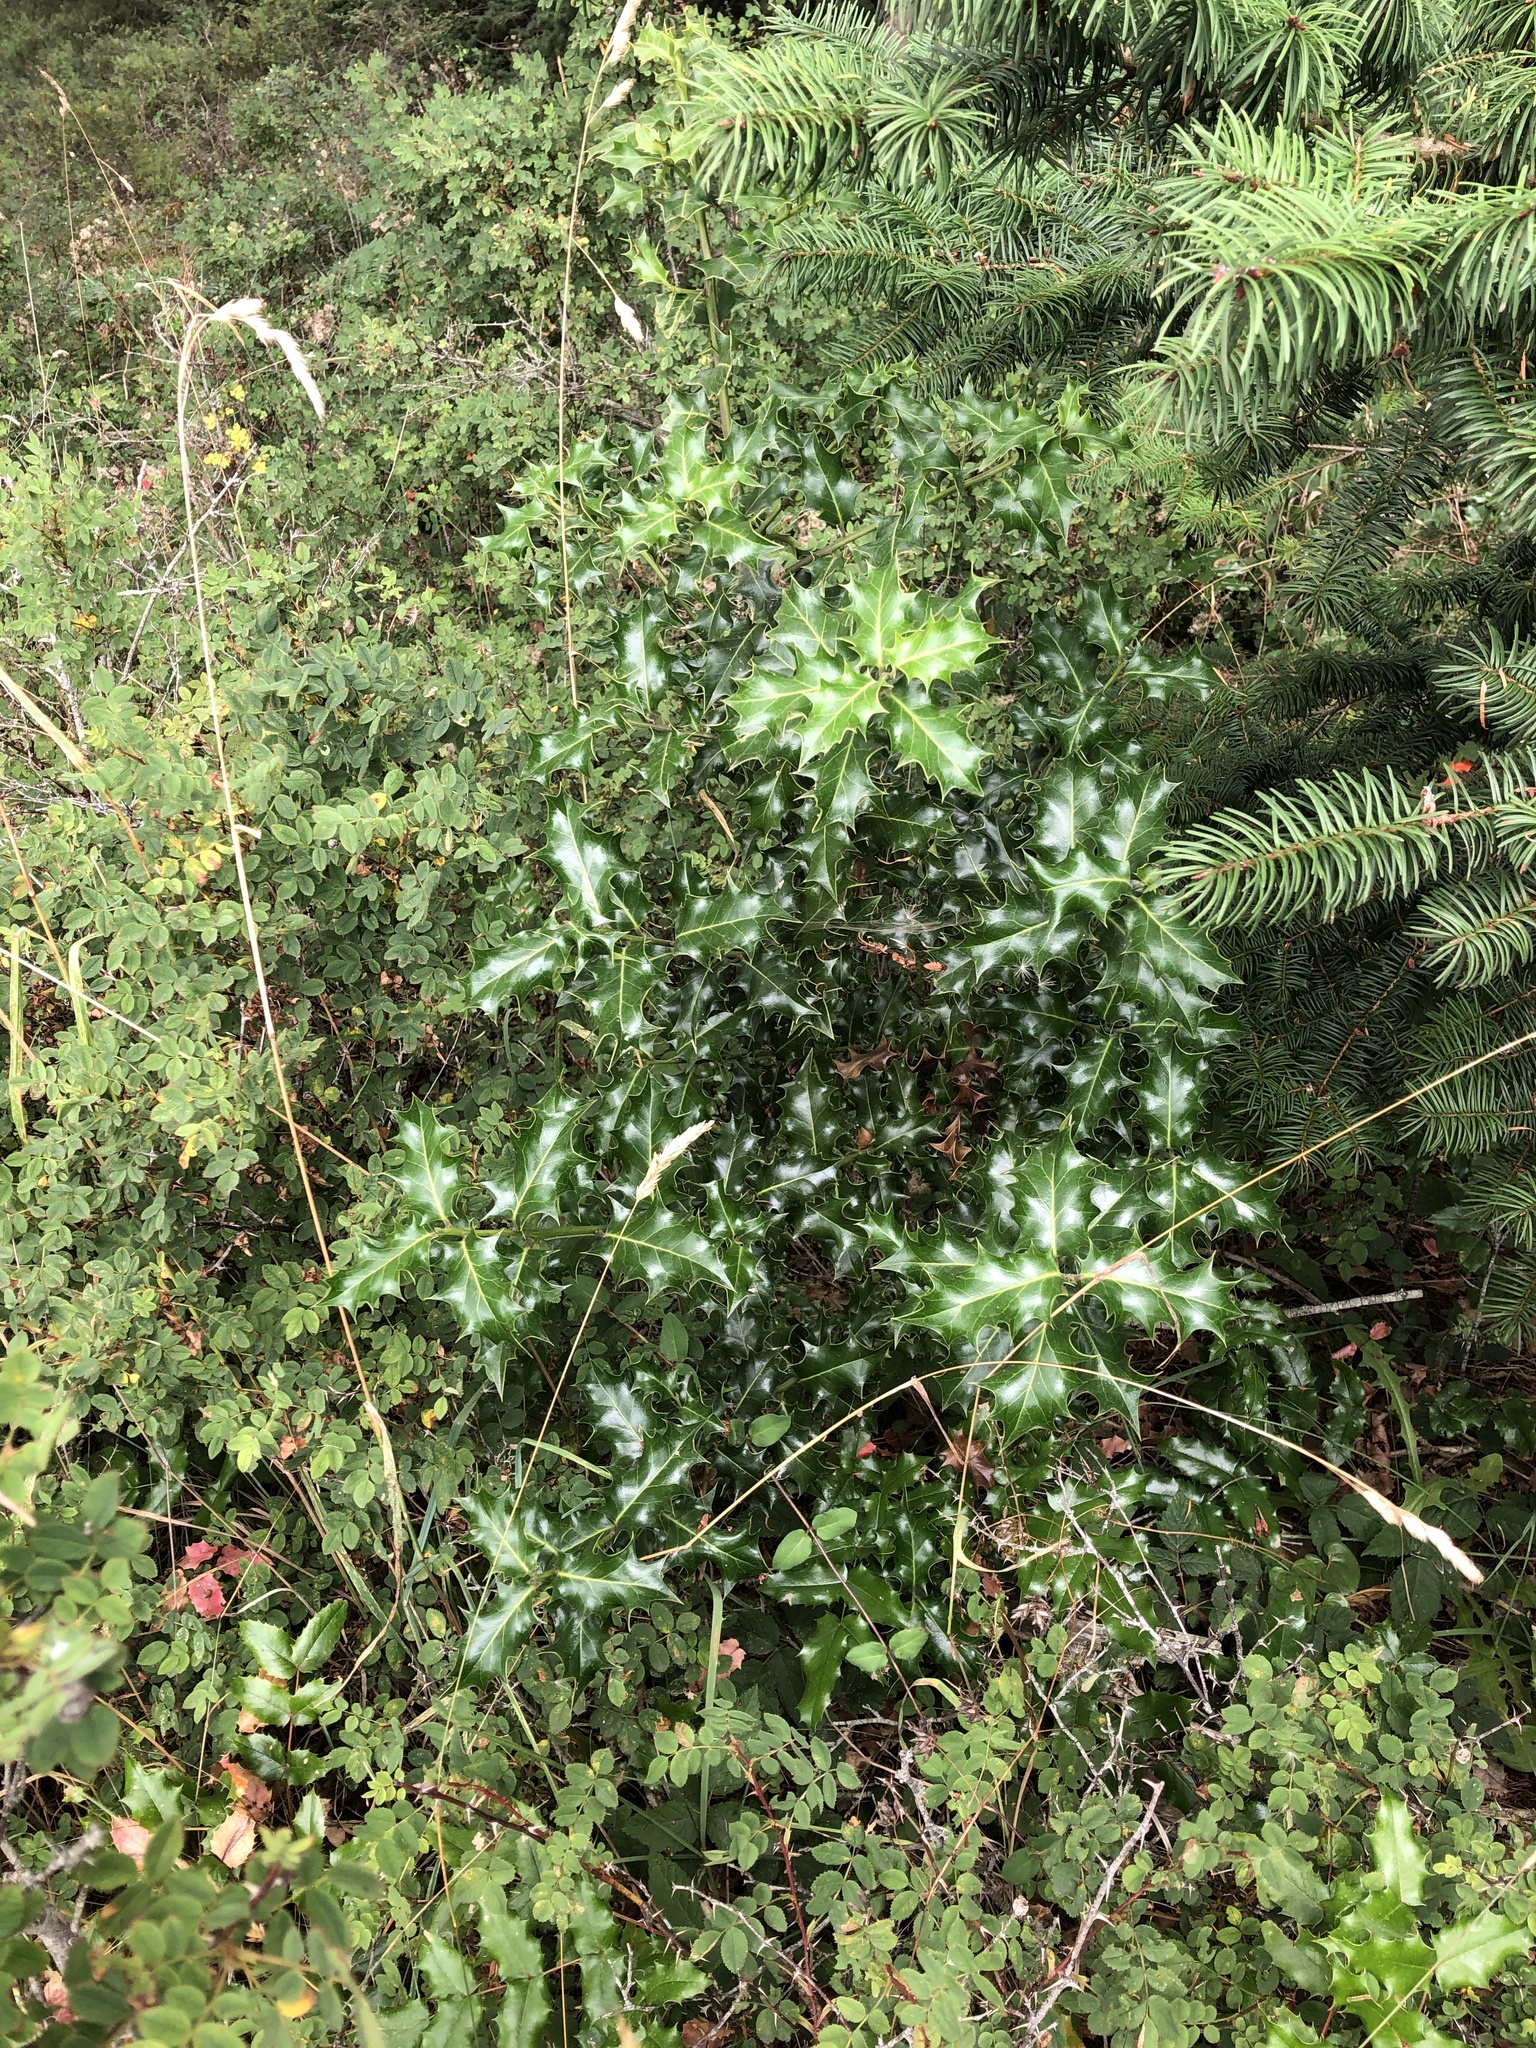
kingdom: Plantae
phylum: Tracheophyta
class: Magnoliopsida
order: Aquifoliales
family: Aquifoliaceae
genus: Ilex
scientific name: Ilex aquifolium
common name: English holly
